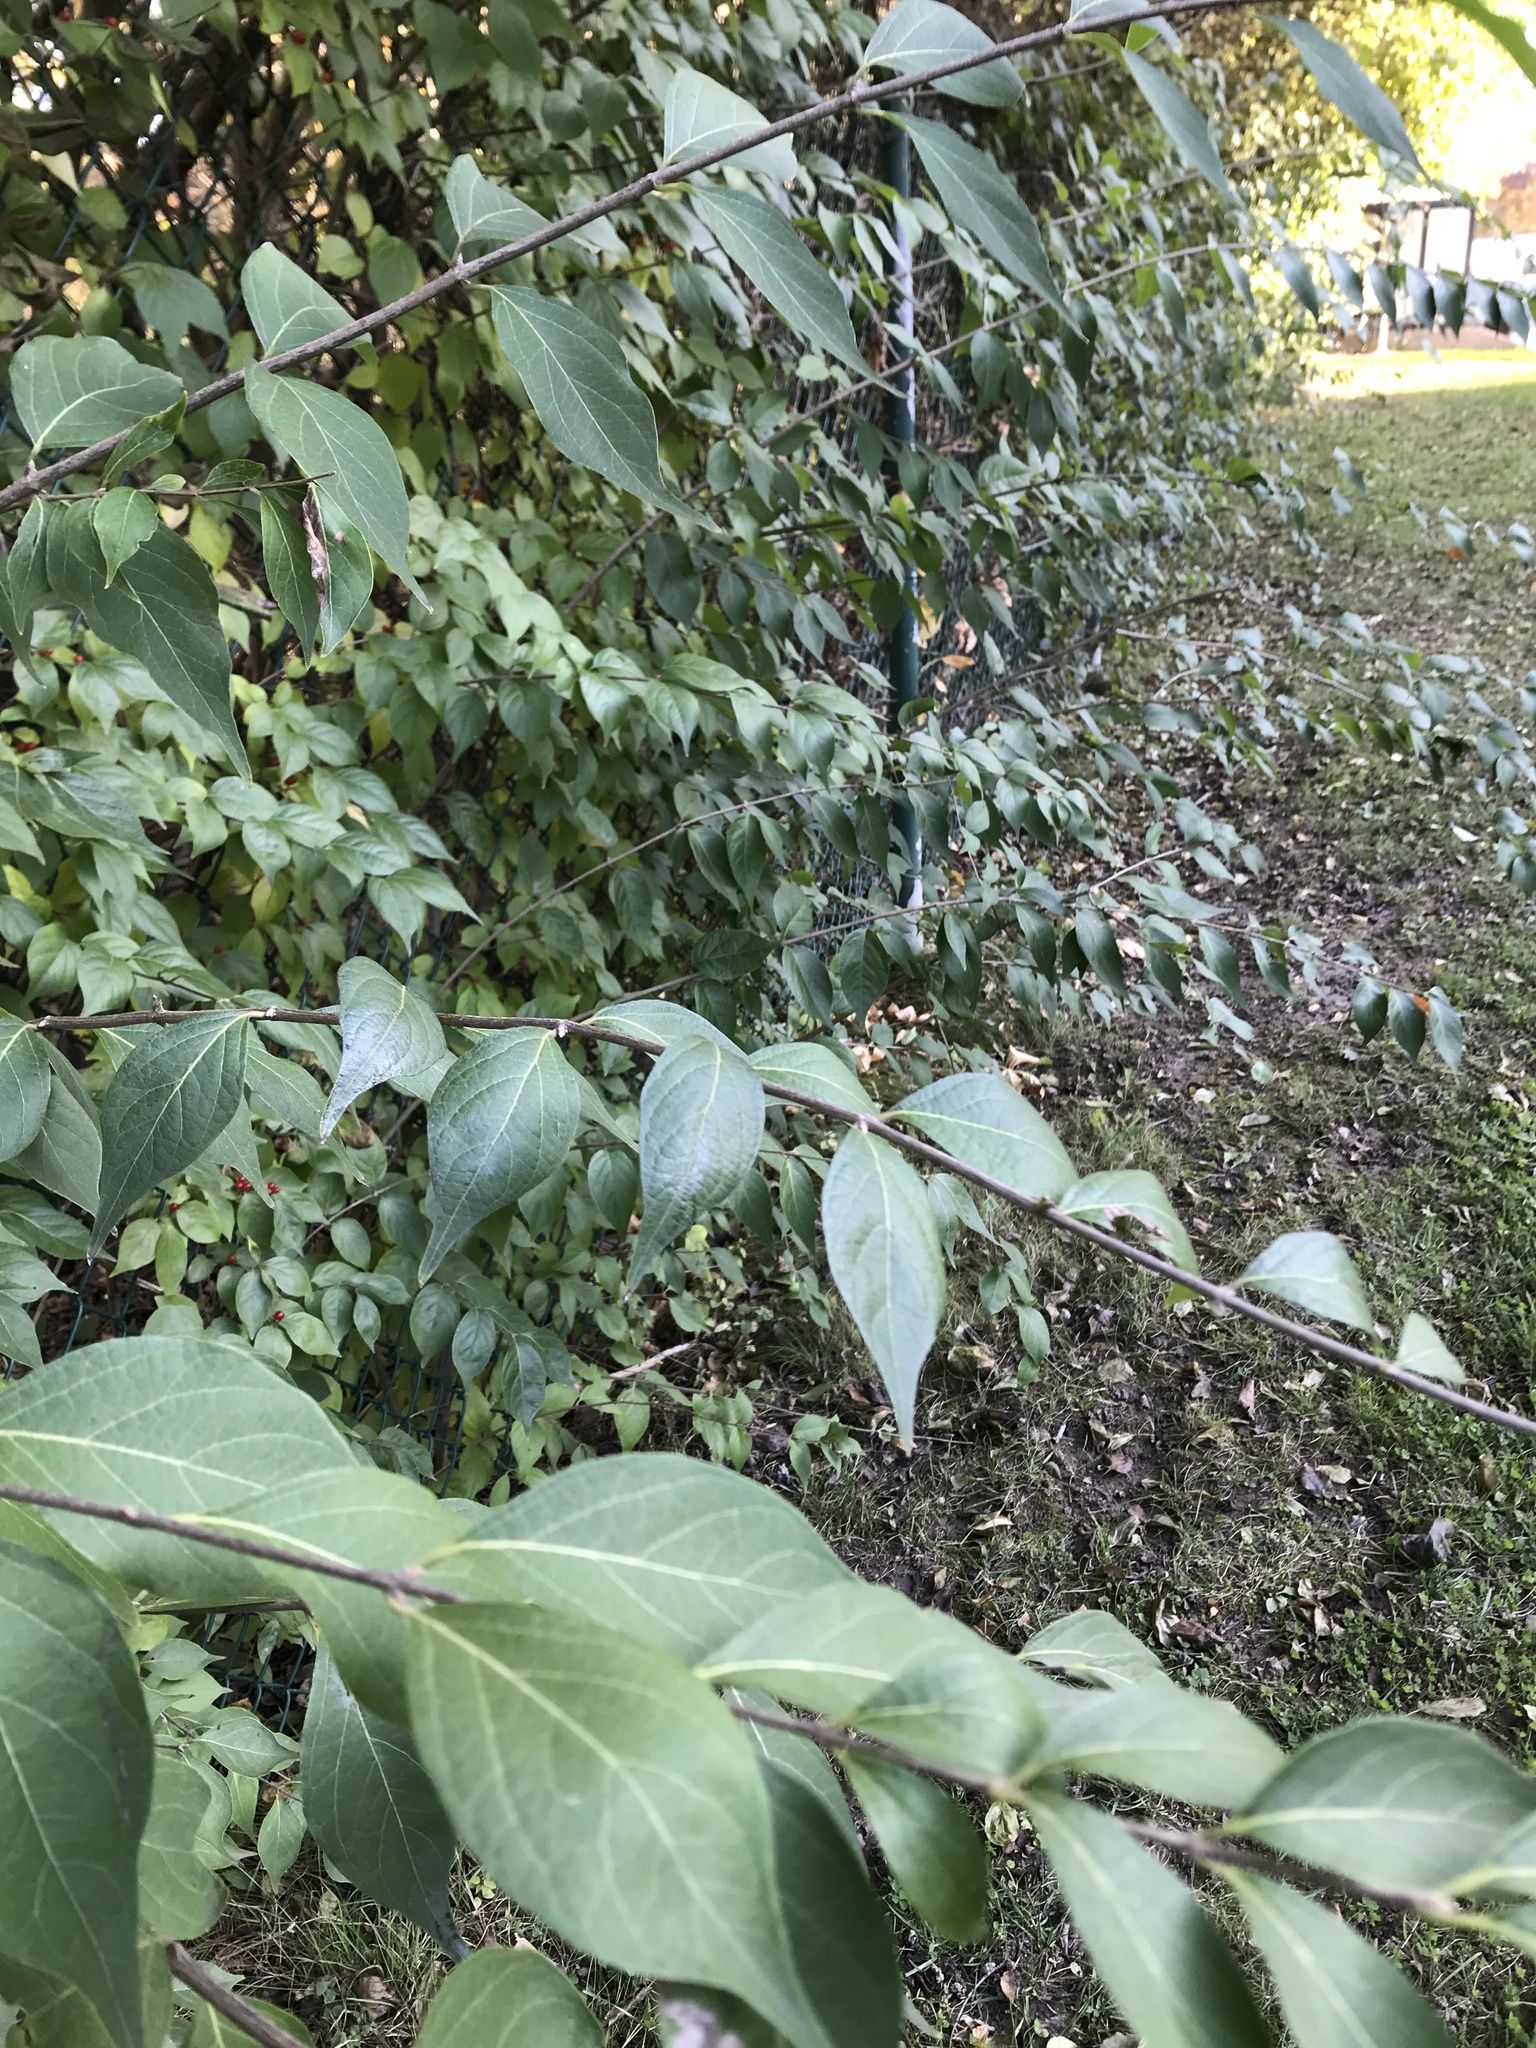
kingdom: Plantae
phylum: Tracheophyta
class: Magnoliopsida
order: Dipsacales
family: Caprifoliaceae
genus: Lonicera
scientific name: Lonicera maackii
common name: Amur honeysuckle
